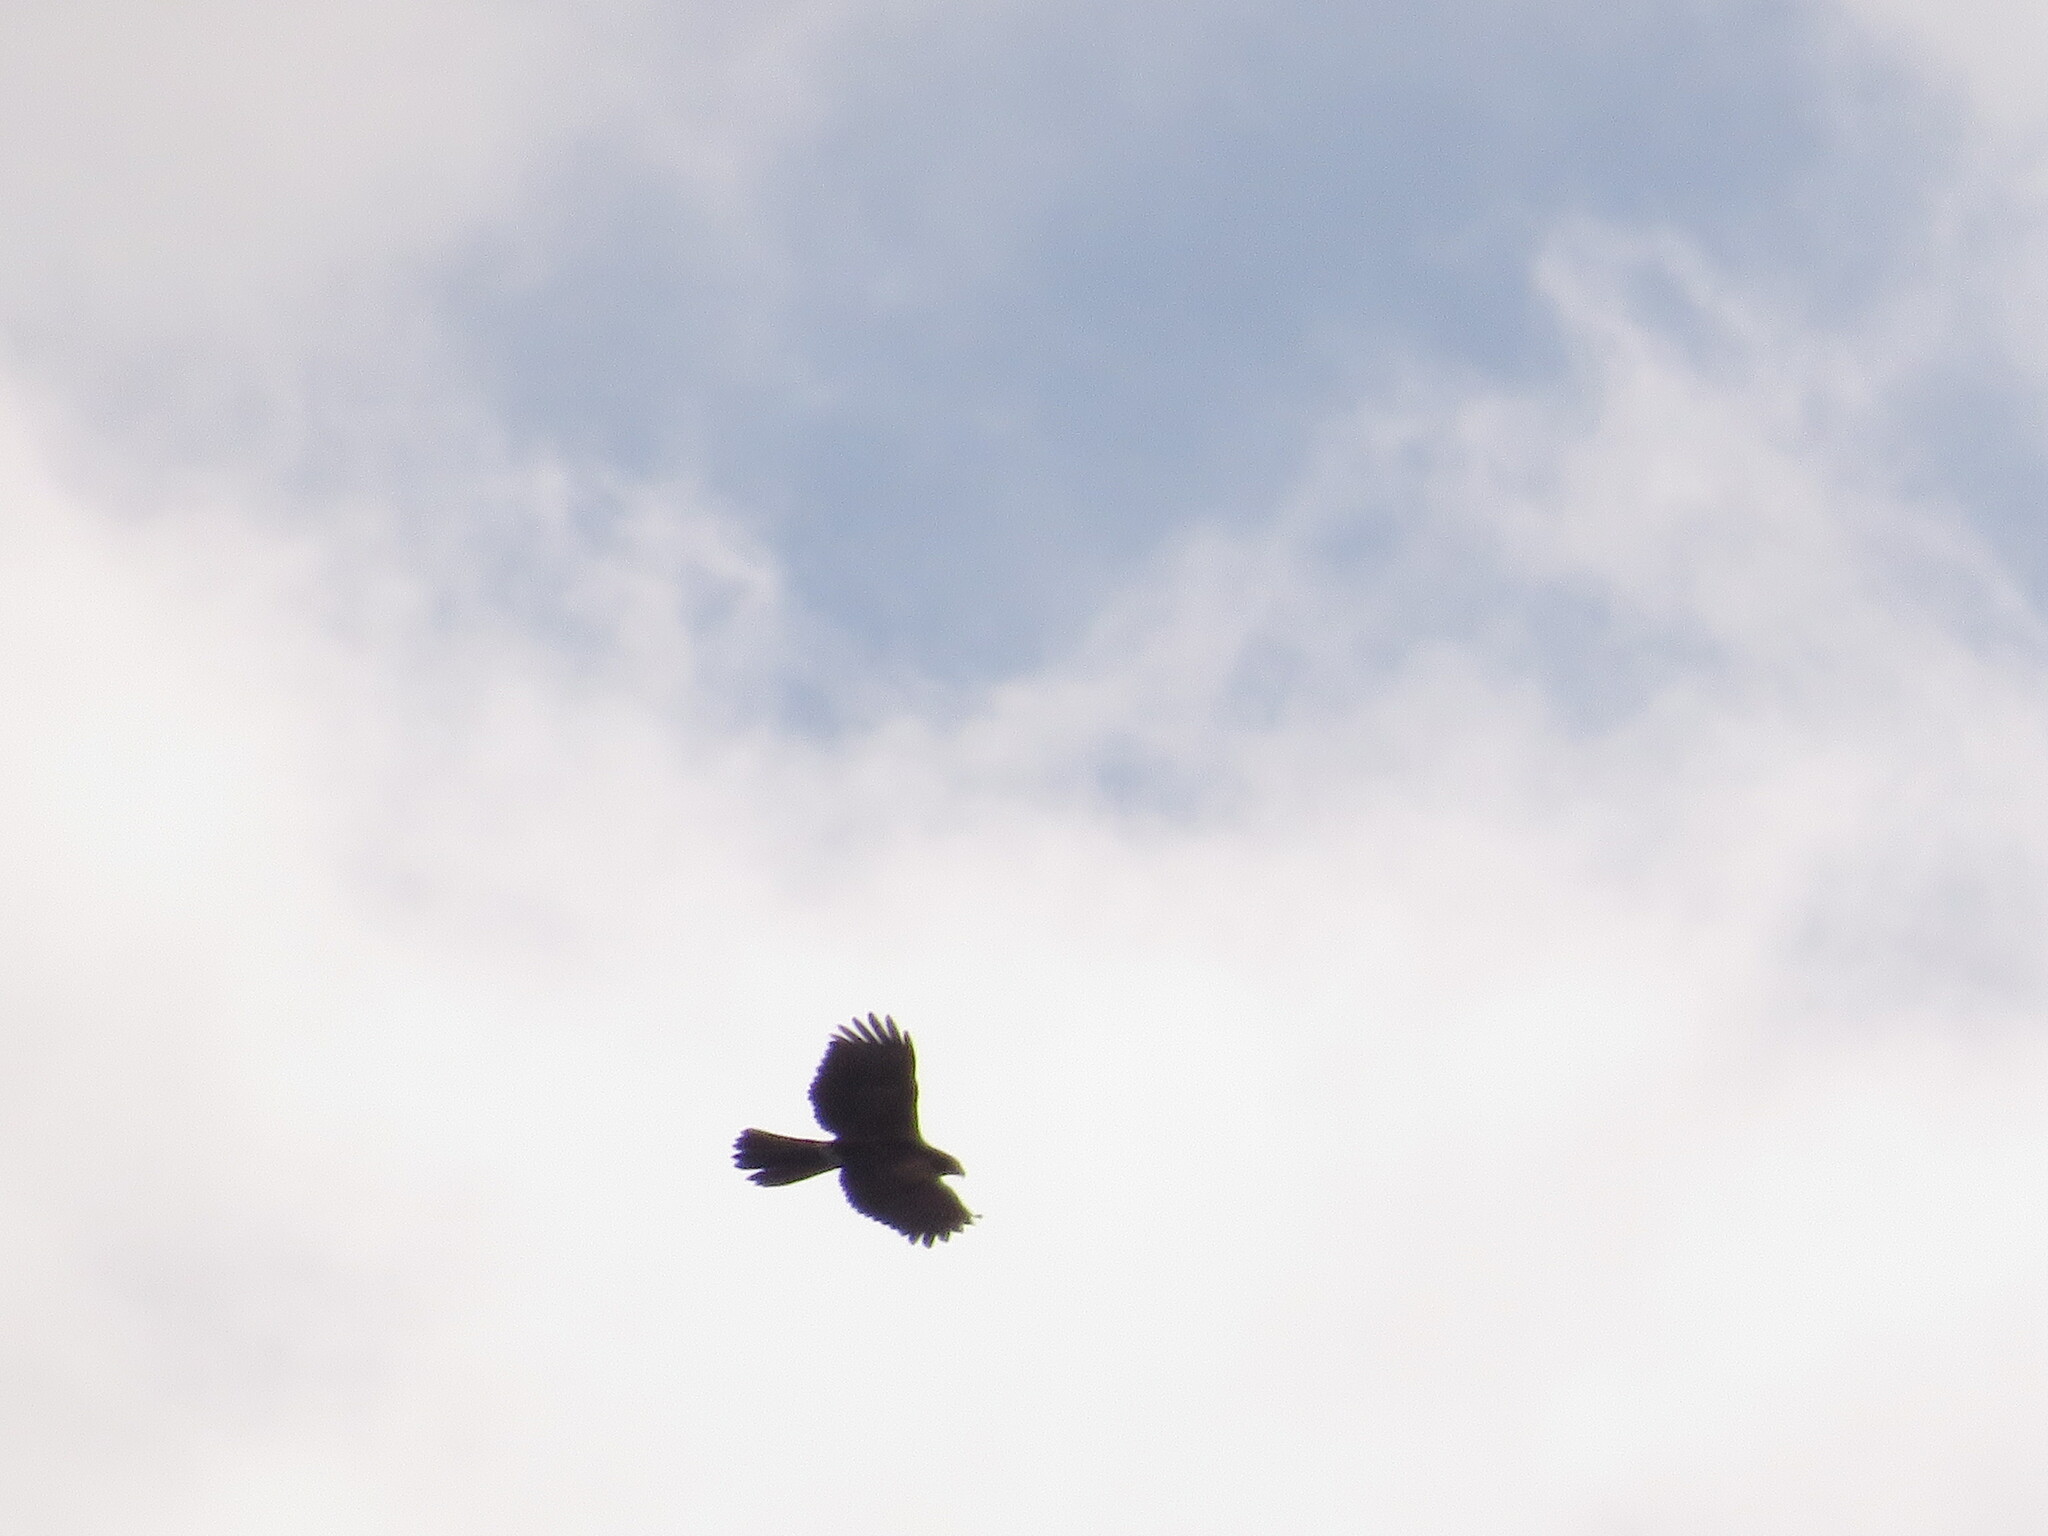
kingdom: Animalia
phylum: Chordata
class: Aves
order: Accipitriformes
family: Accipitridae
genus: Parabuteo
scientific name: Parabuteo unicinctus
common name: Harris's hawk
